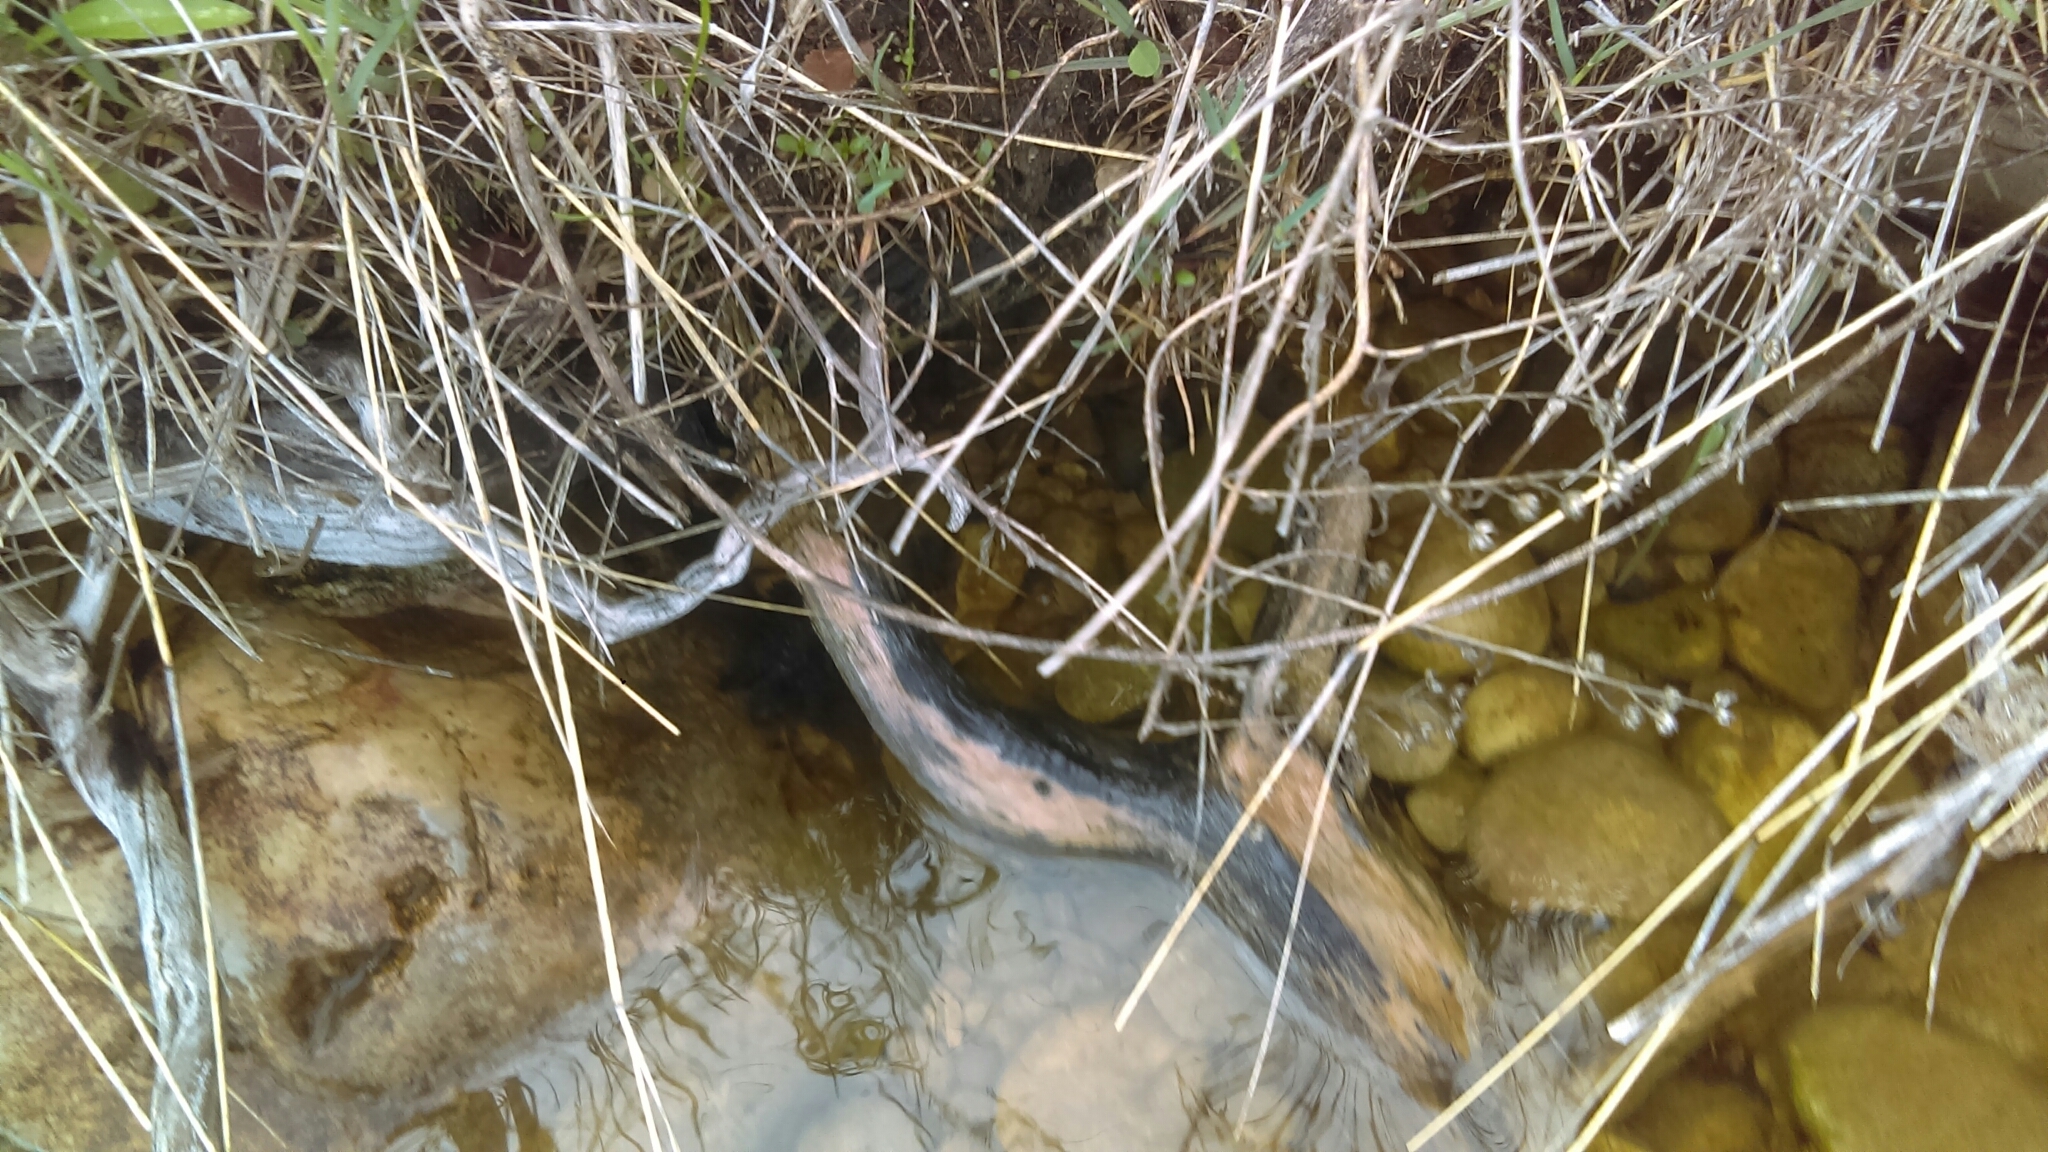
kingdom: Animalia
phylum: Chordata
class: Testudines
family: Chelydridae
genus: Chelydra
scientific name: Chelydra serpentina
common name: Common snapping turtle
